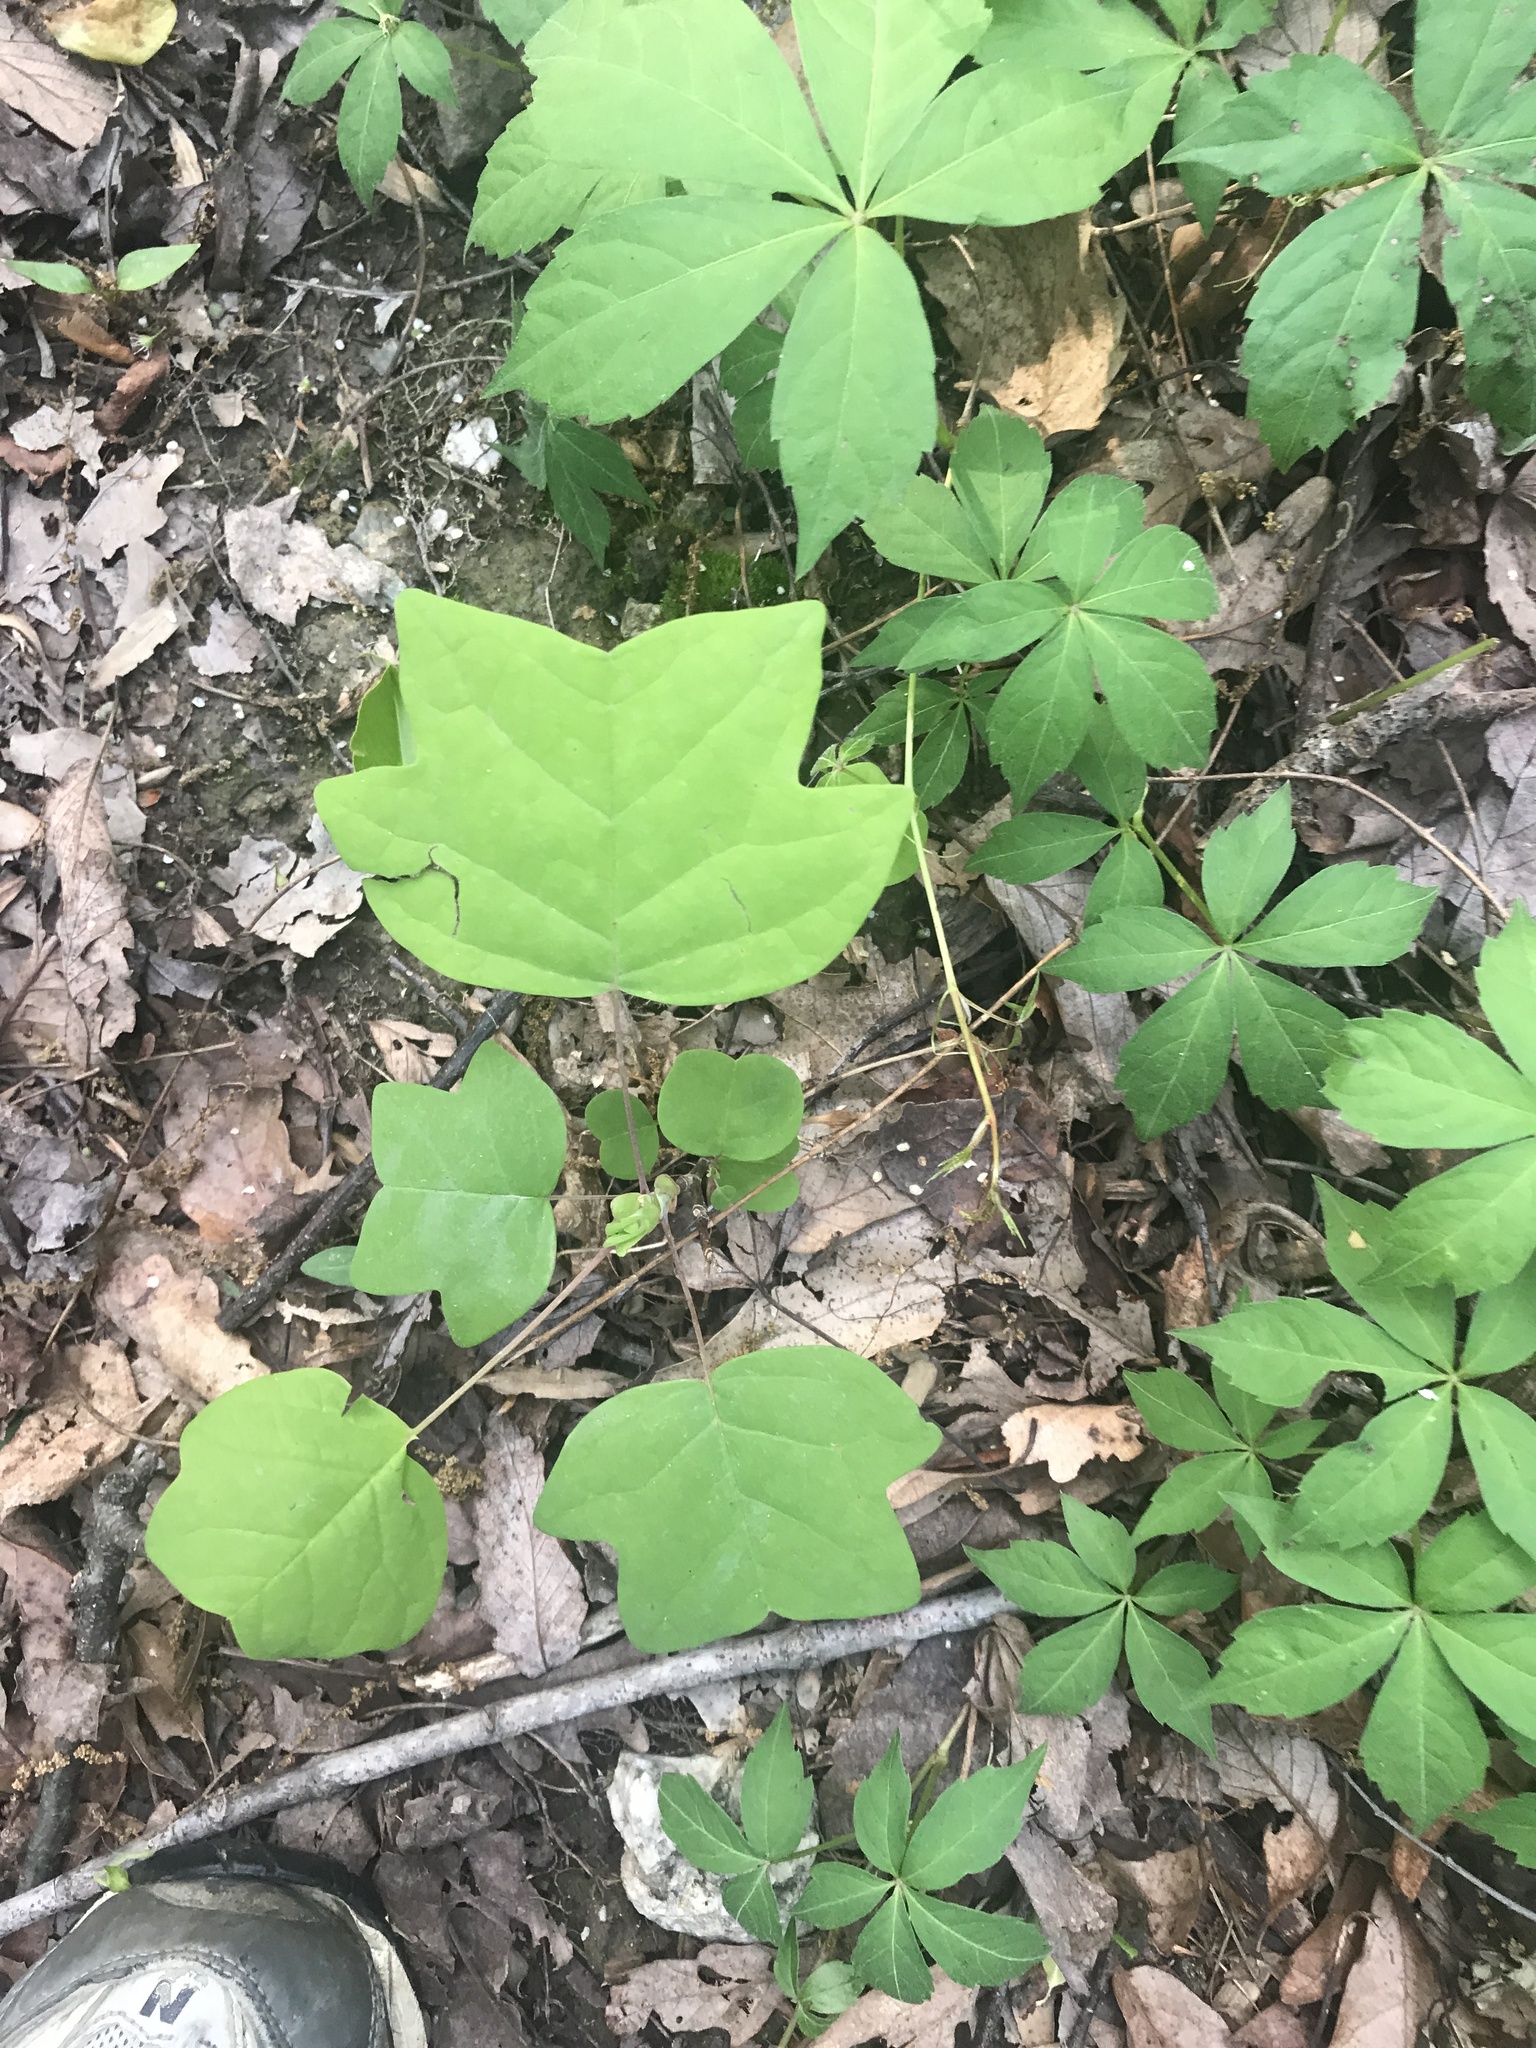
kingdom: Plantae
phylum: Tracheophyta
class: Magnoliopsida
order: Magnoliales
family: Magnoliaceae
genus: Liriodendron
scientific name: Liriodendron tulipifera
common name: Tulip tree
